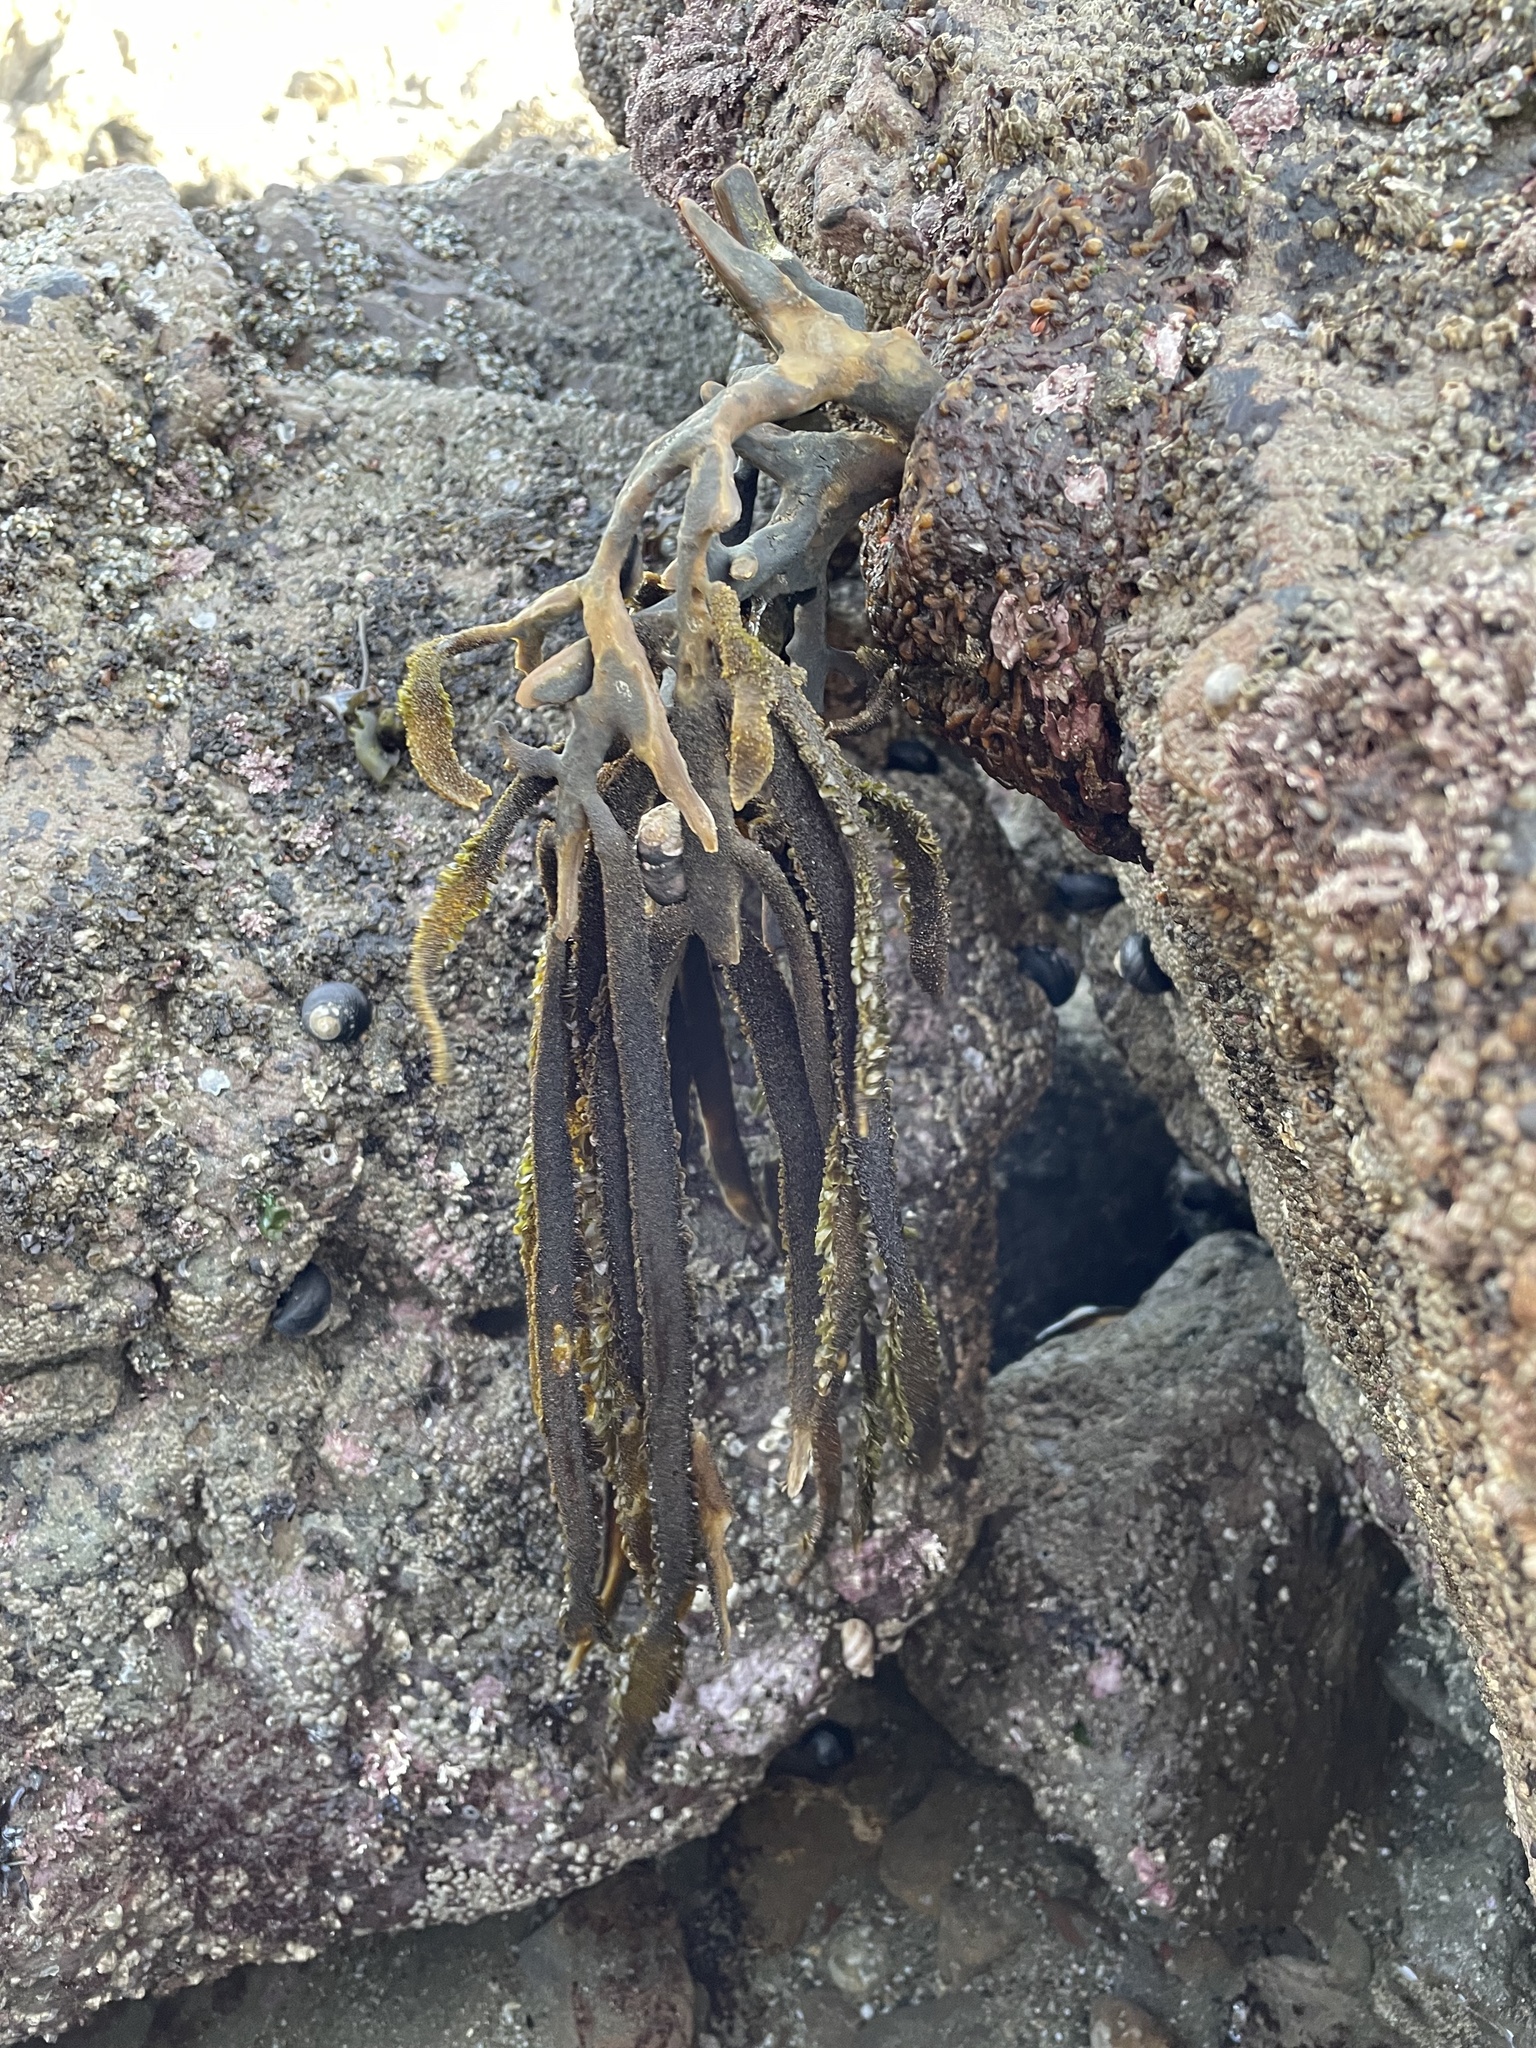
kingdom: Chromista
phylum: Ochrophyta
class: Phaeophyceae
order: Laminariales
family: Lessoniaceae
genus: Egregia
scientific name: Egregia menziesii
